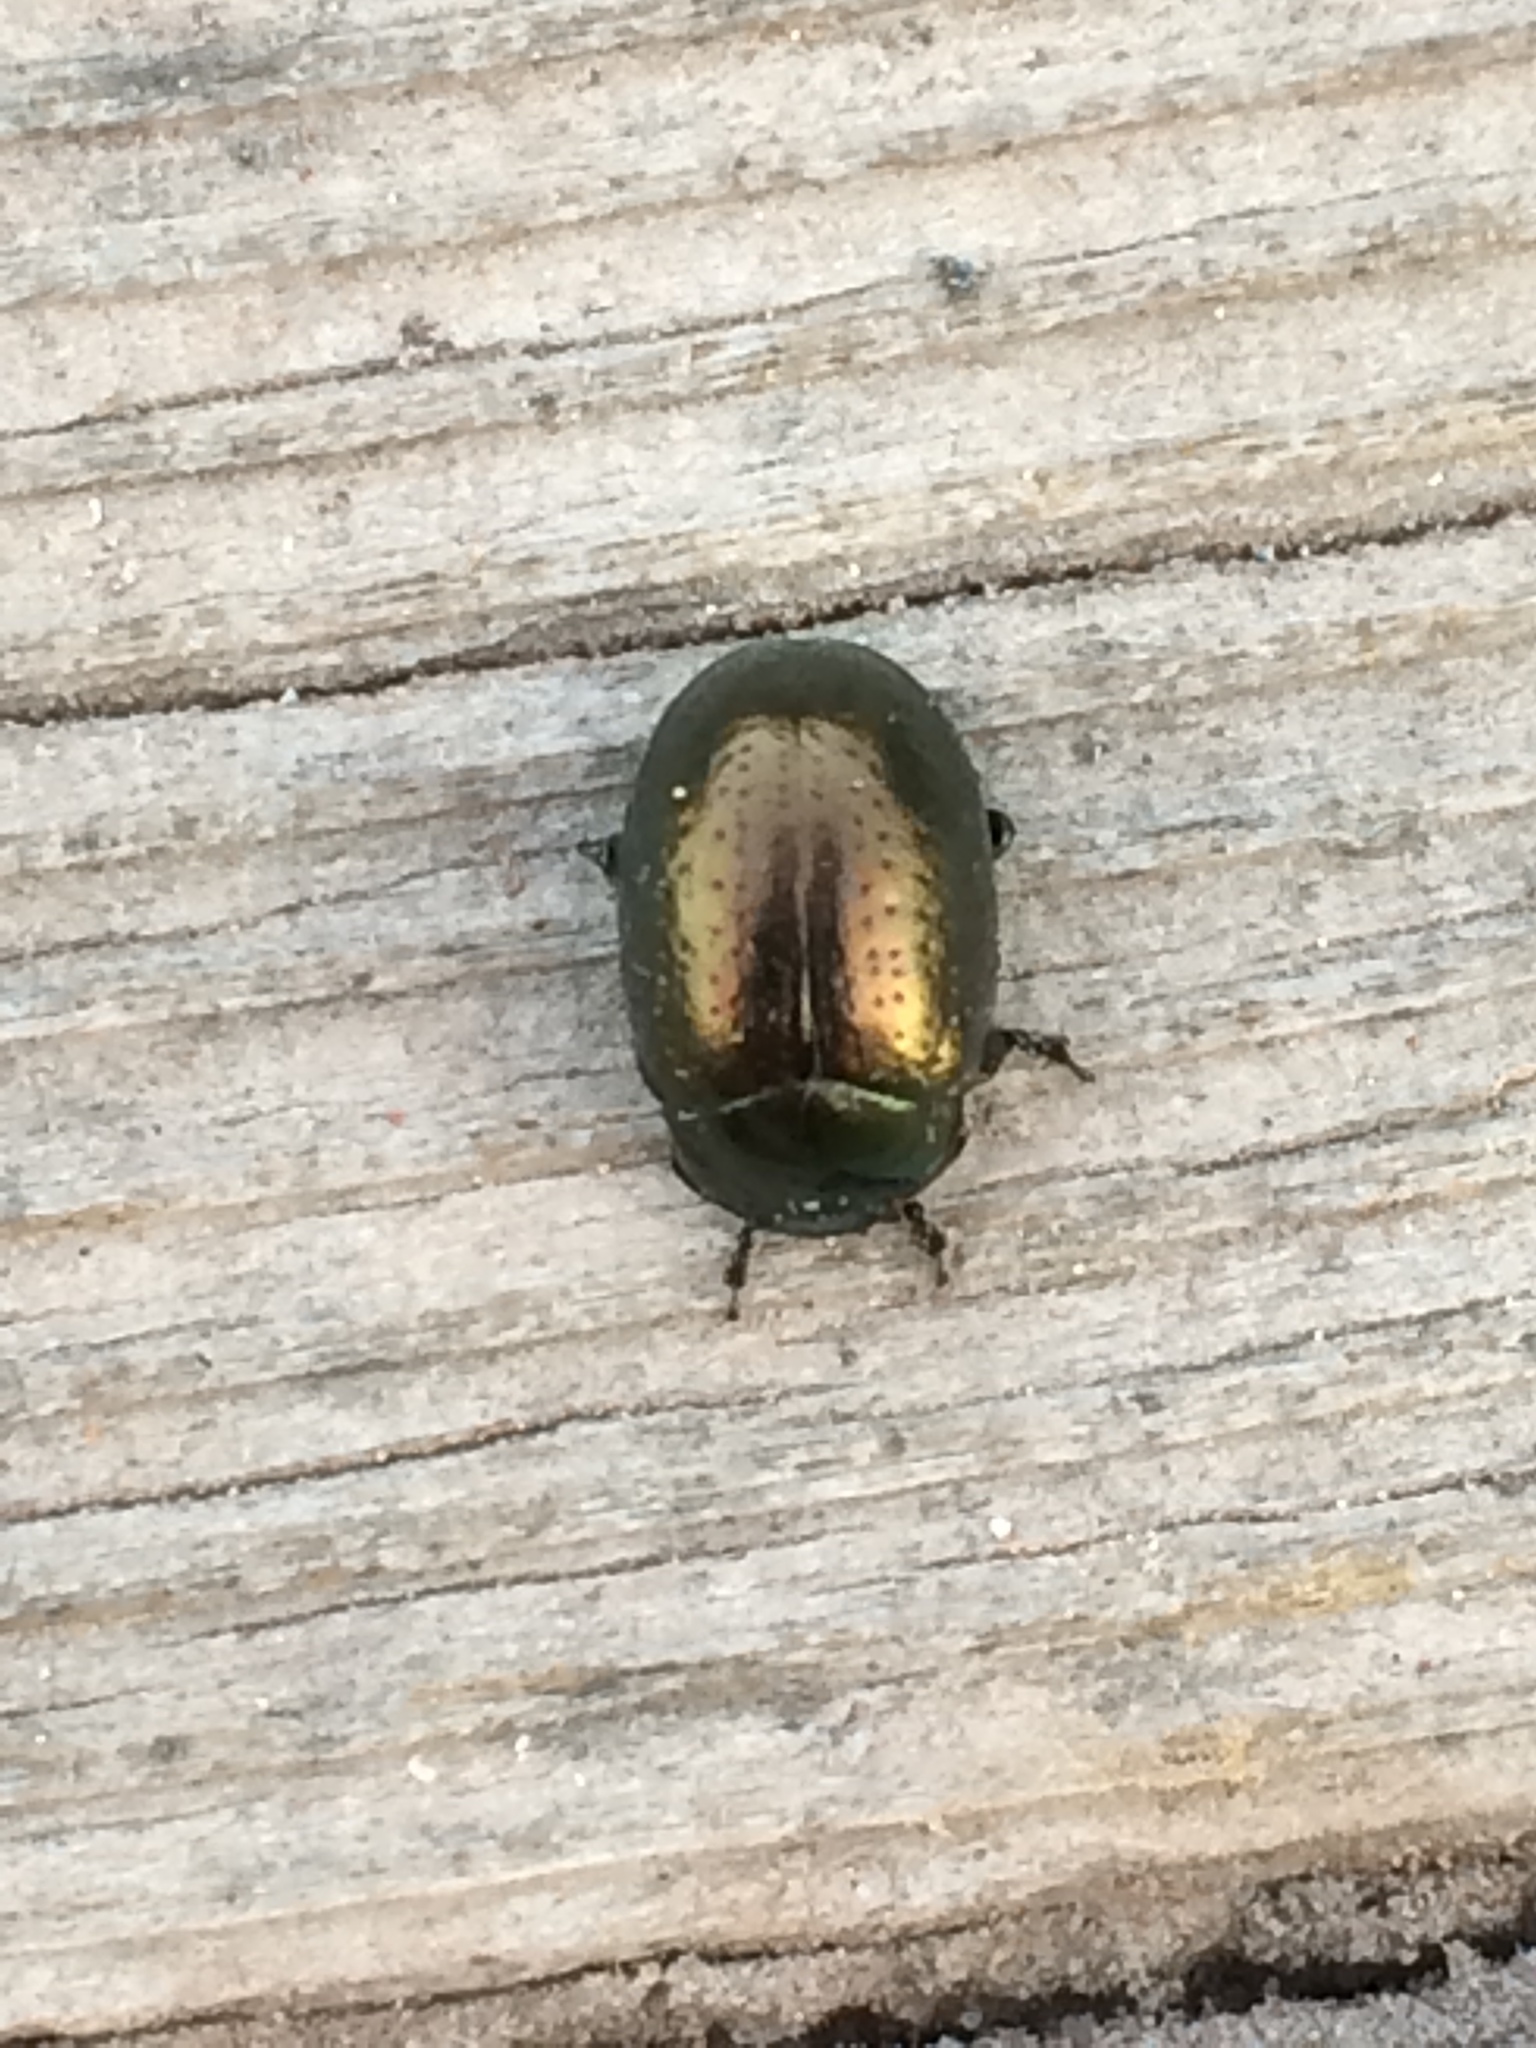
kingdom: Animalia
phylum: Arthropoda
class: Insecta
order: Coleoptera
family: Chrysomelidae
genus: Chrysolina
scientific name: Chrysolina hyperici
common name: St. johnswort beetle
